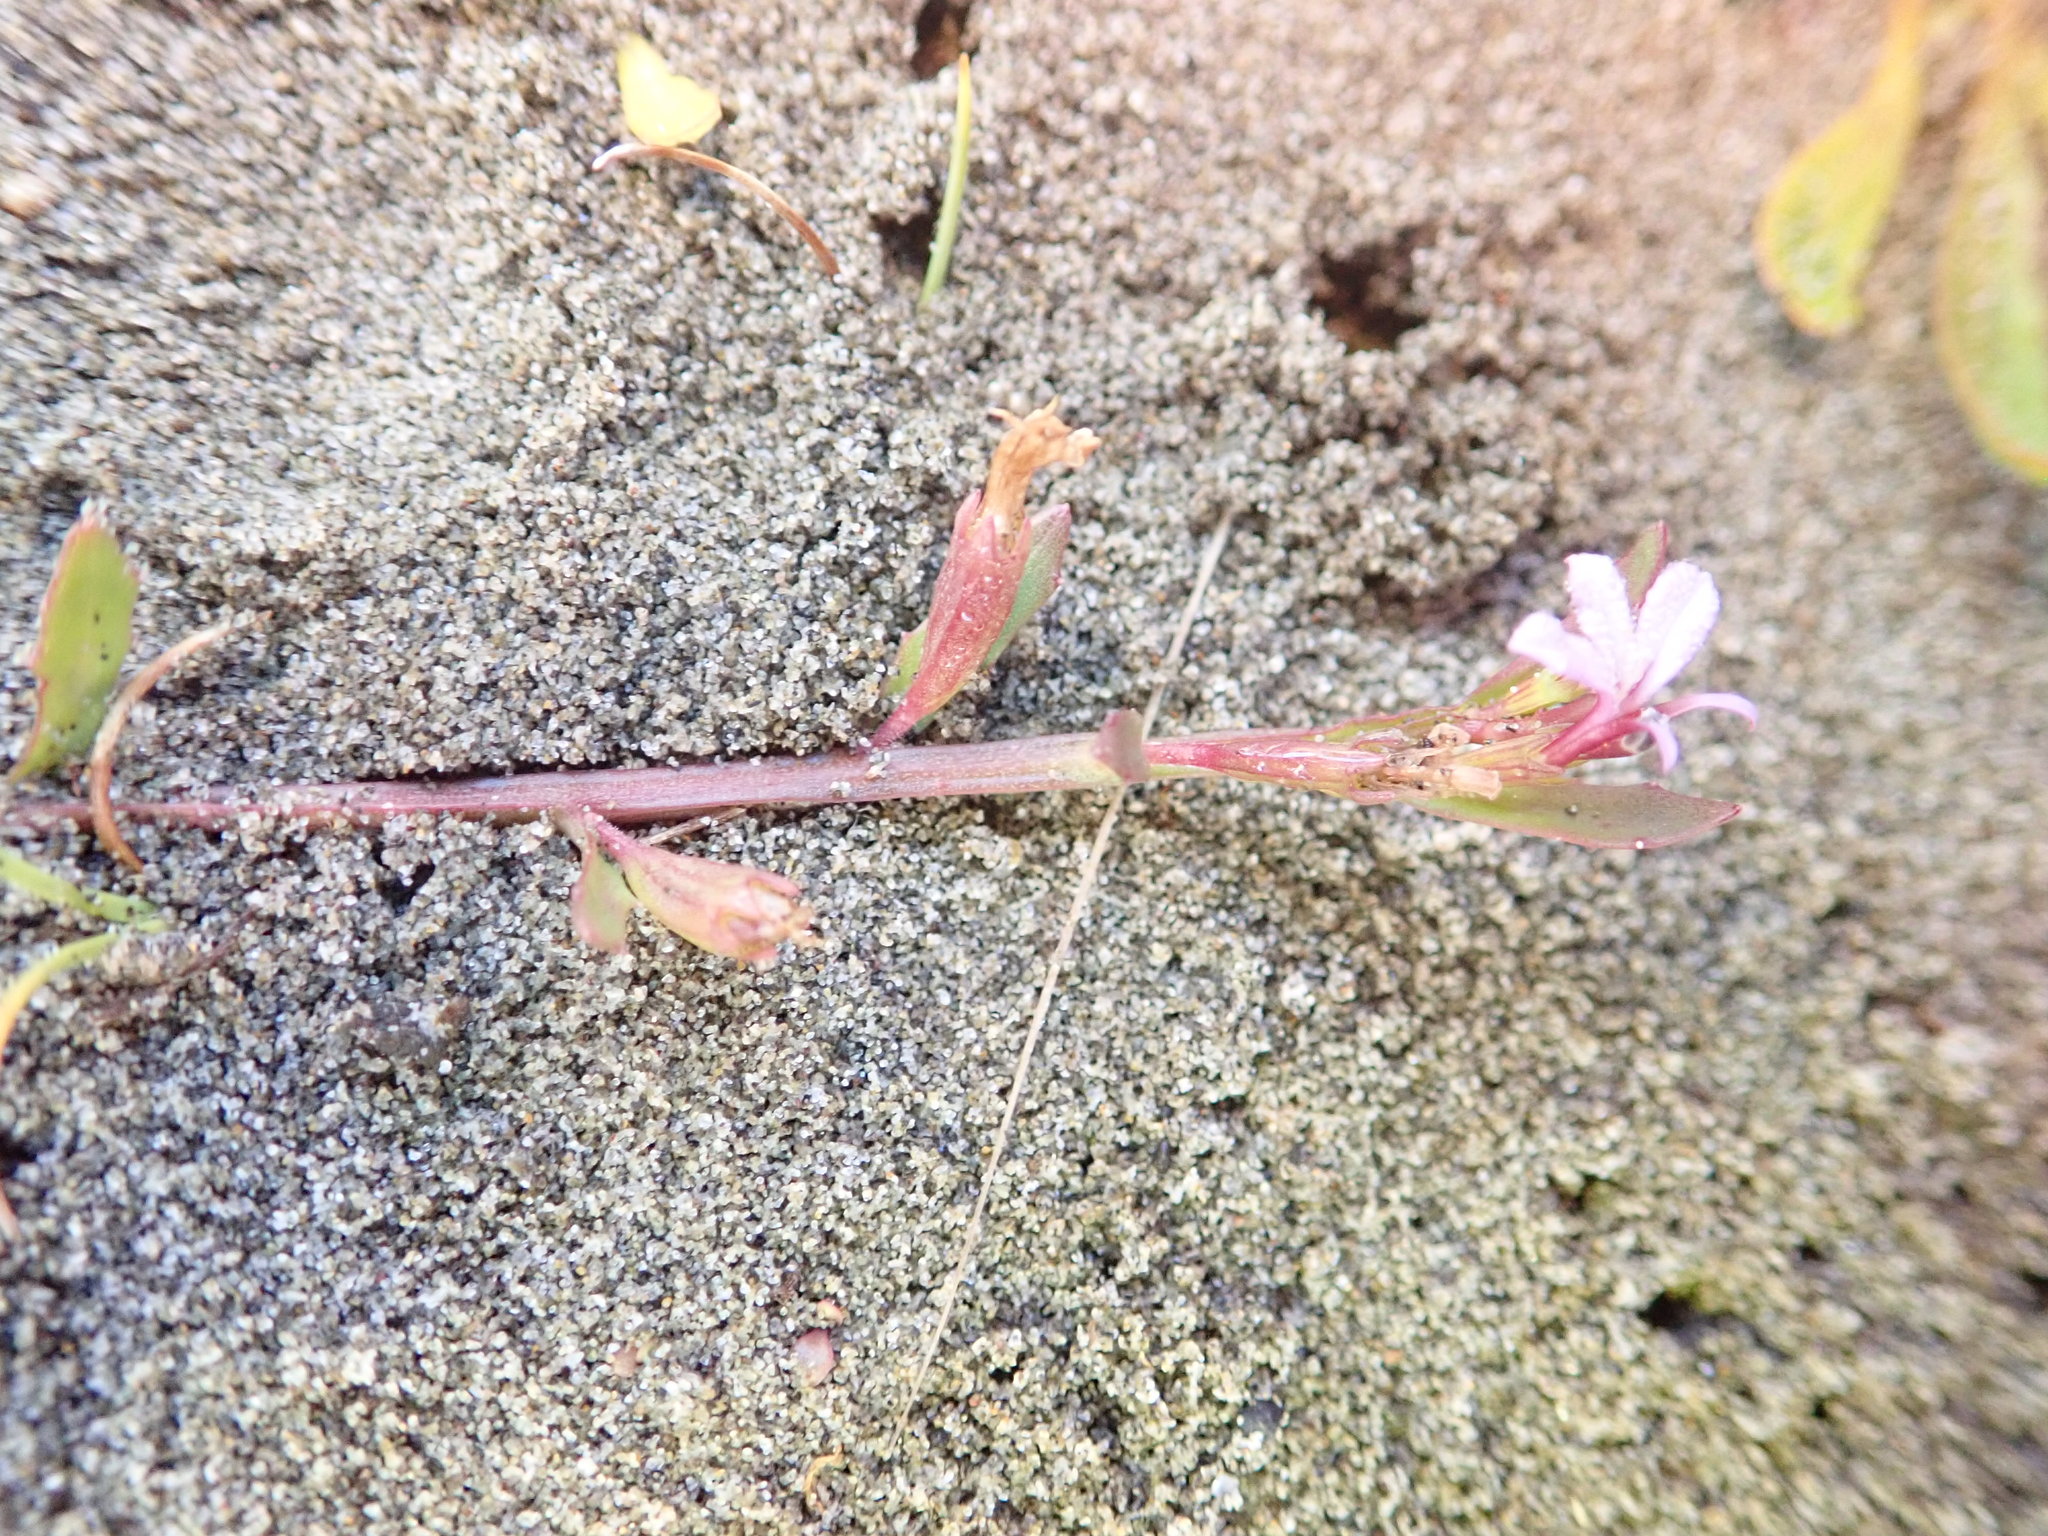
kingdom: Plantae
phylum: Tracheophyta
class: Magnoliopsida
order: Asterales
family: Campanulaceae
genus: Lobelia
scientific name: Lobelia anceps
